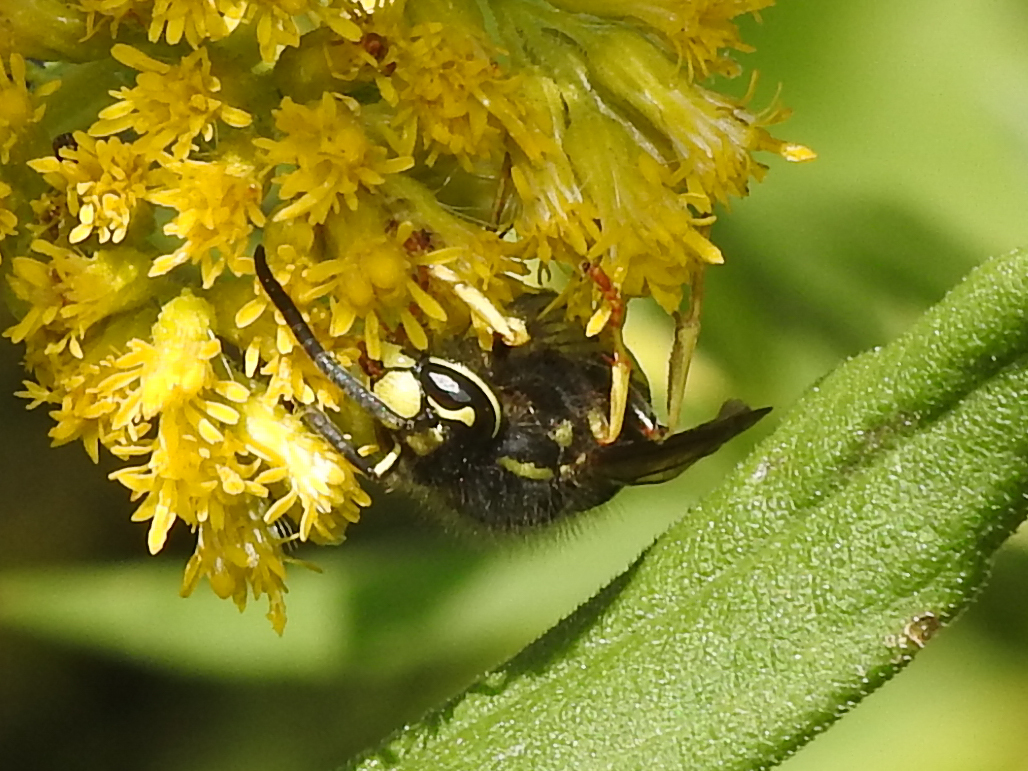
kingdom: Animalia
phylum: Arthropoda
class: Insecta
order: Hymenoptera
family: Vespidae
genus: Vespula
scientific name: Vespula vidua
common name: Widow yellowjacket
